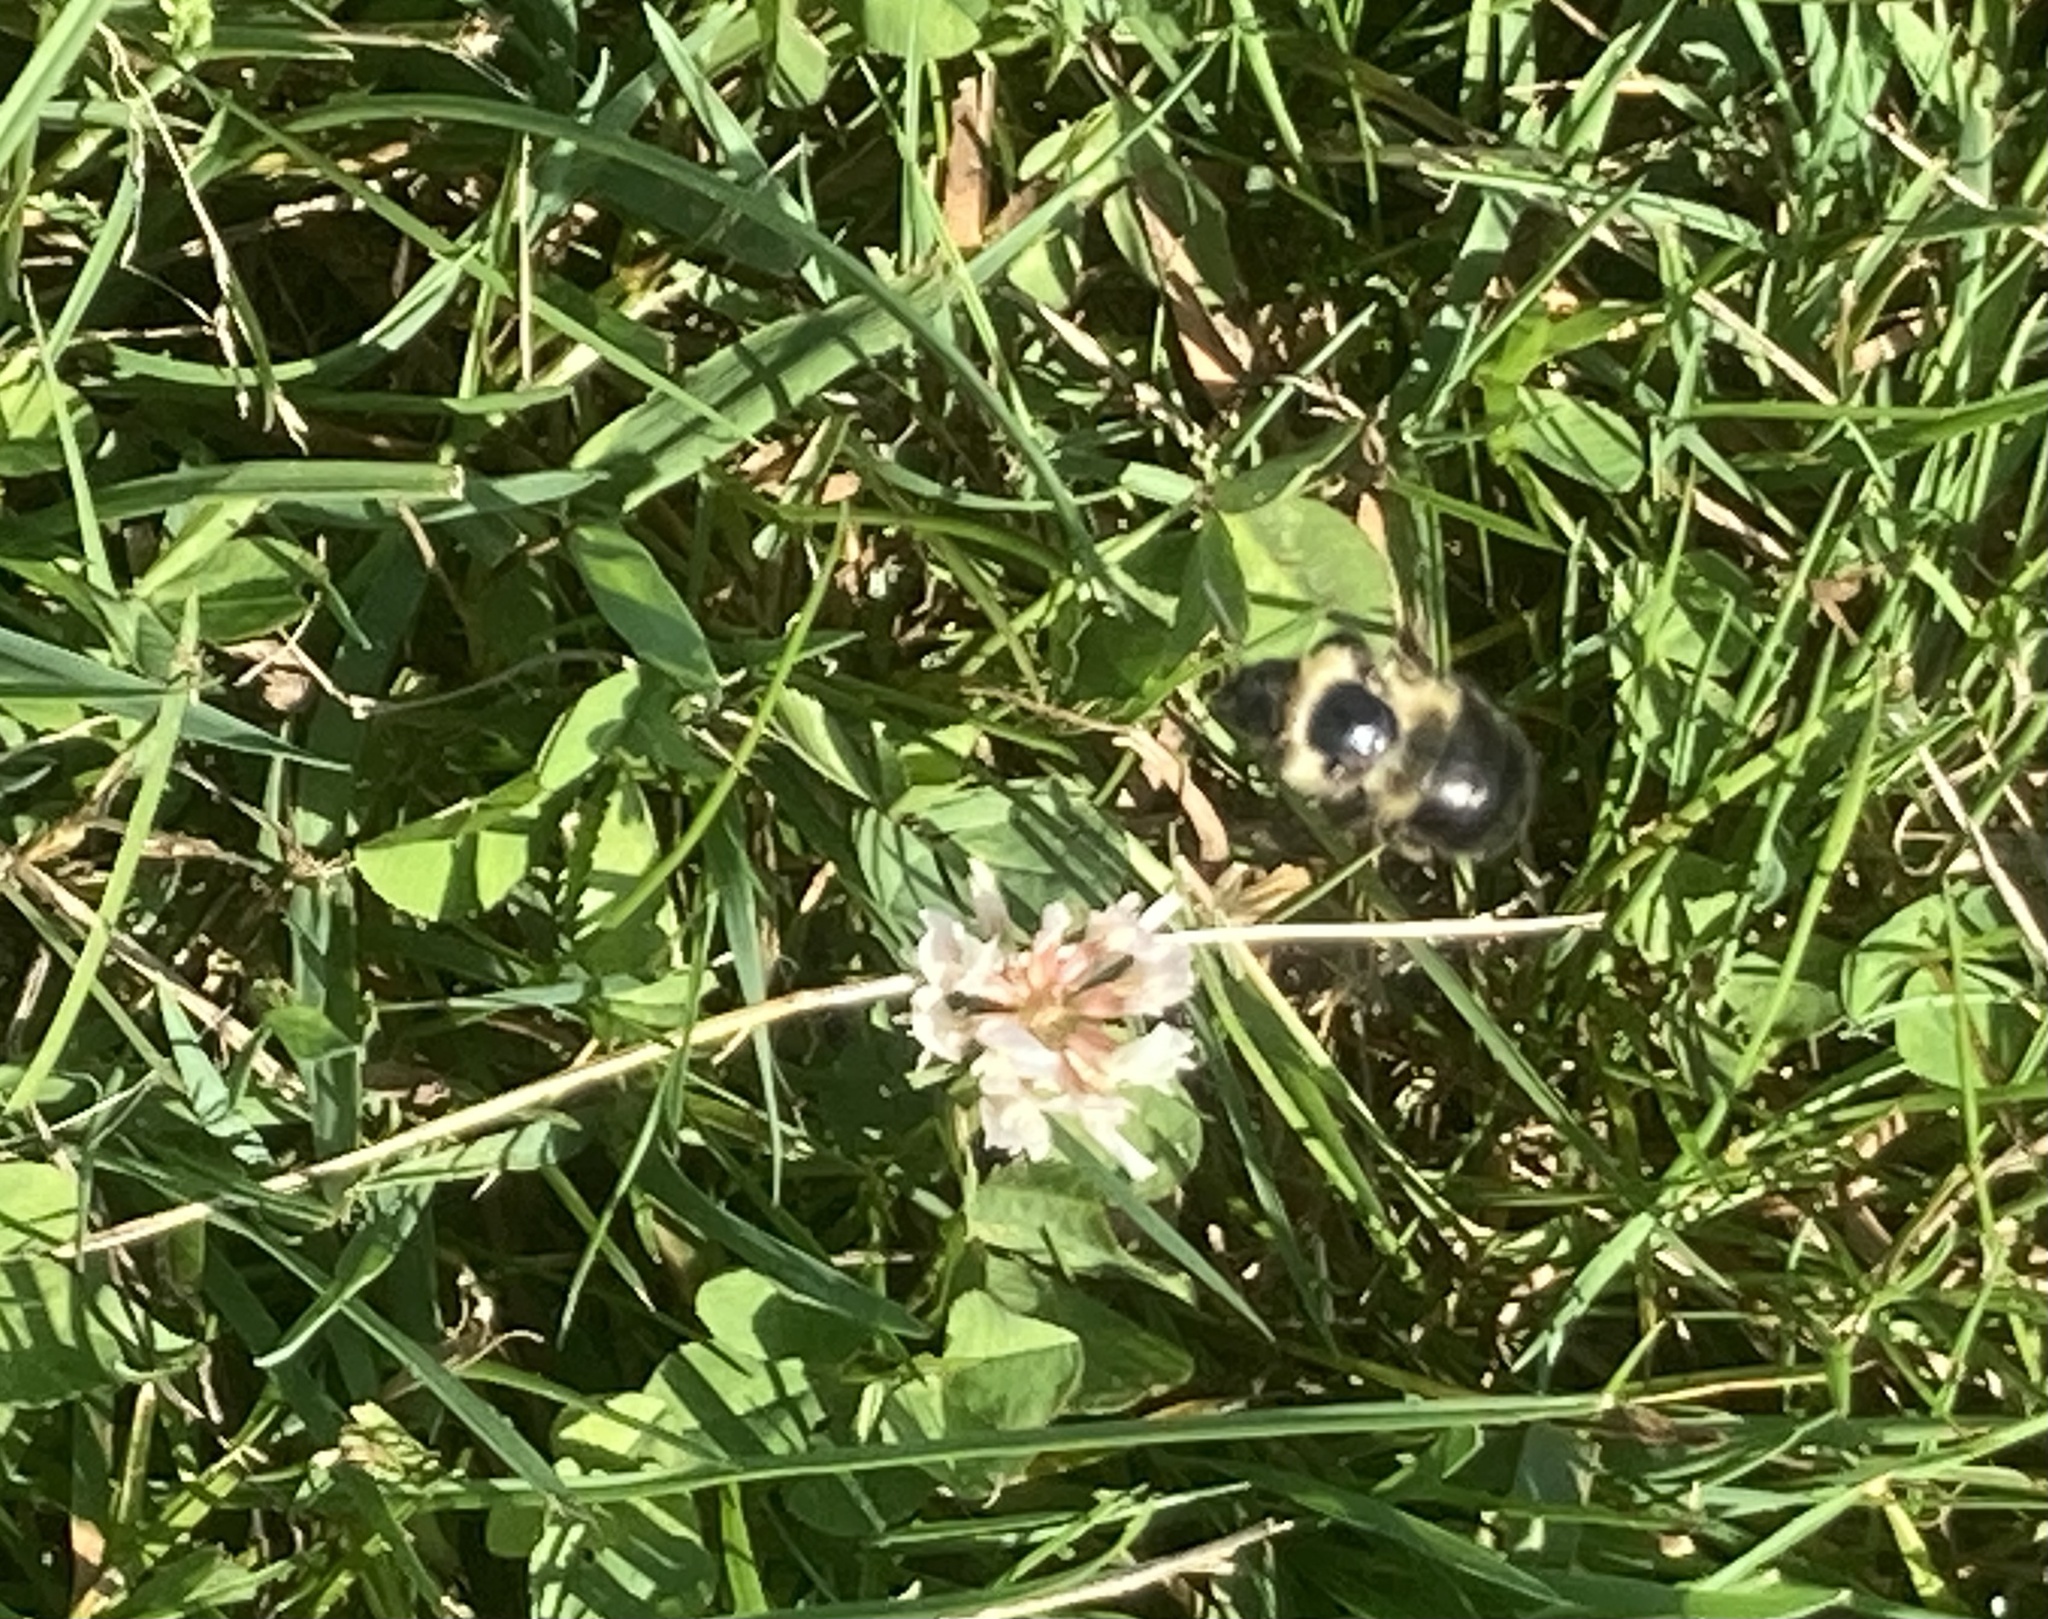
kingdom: Animalia
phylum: Arthropoda
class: Insecta
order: Hymenoptera
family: Apidae
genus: Bombus
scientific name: Bombus impatiens
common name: Common eastern bumble bee
